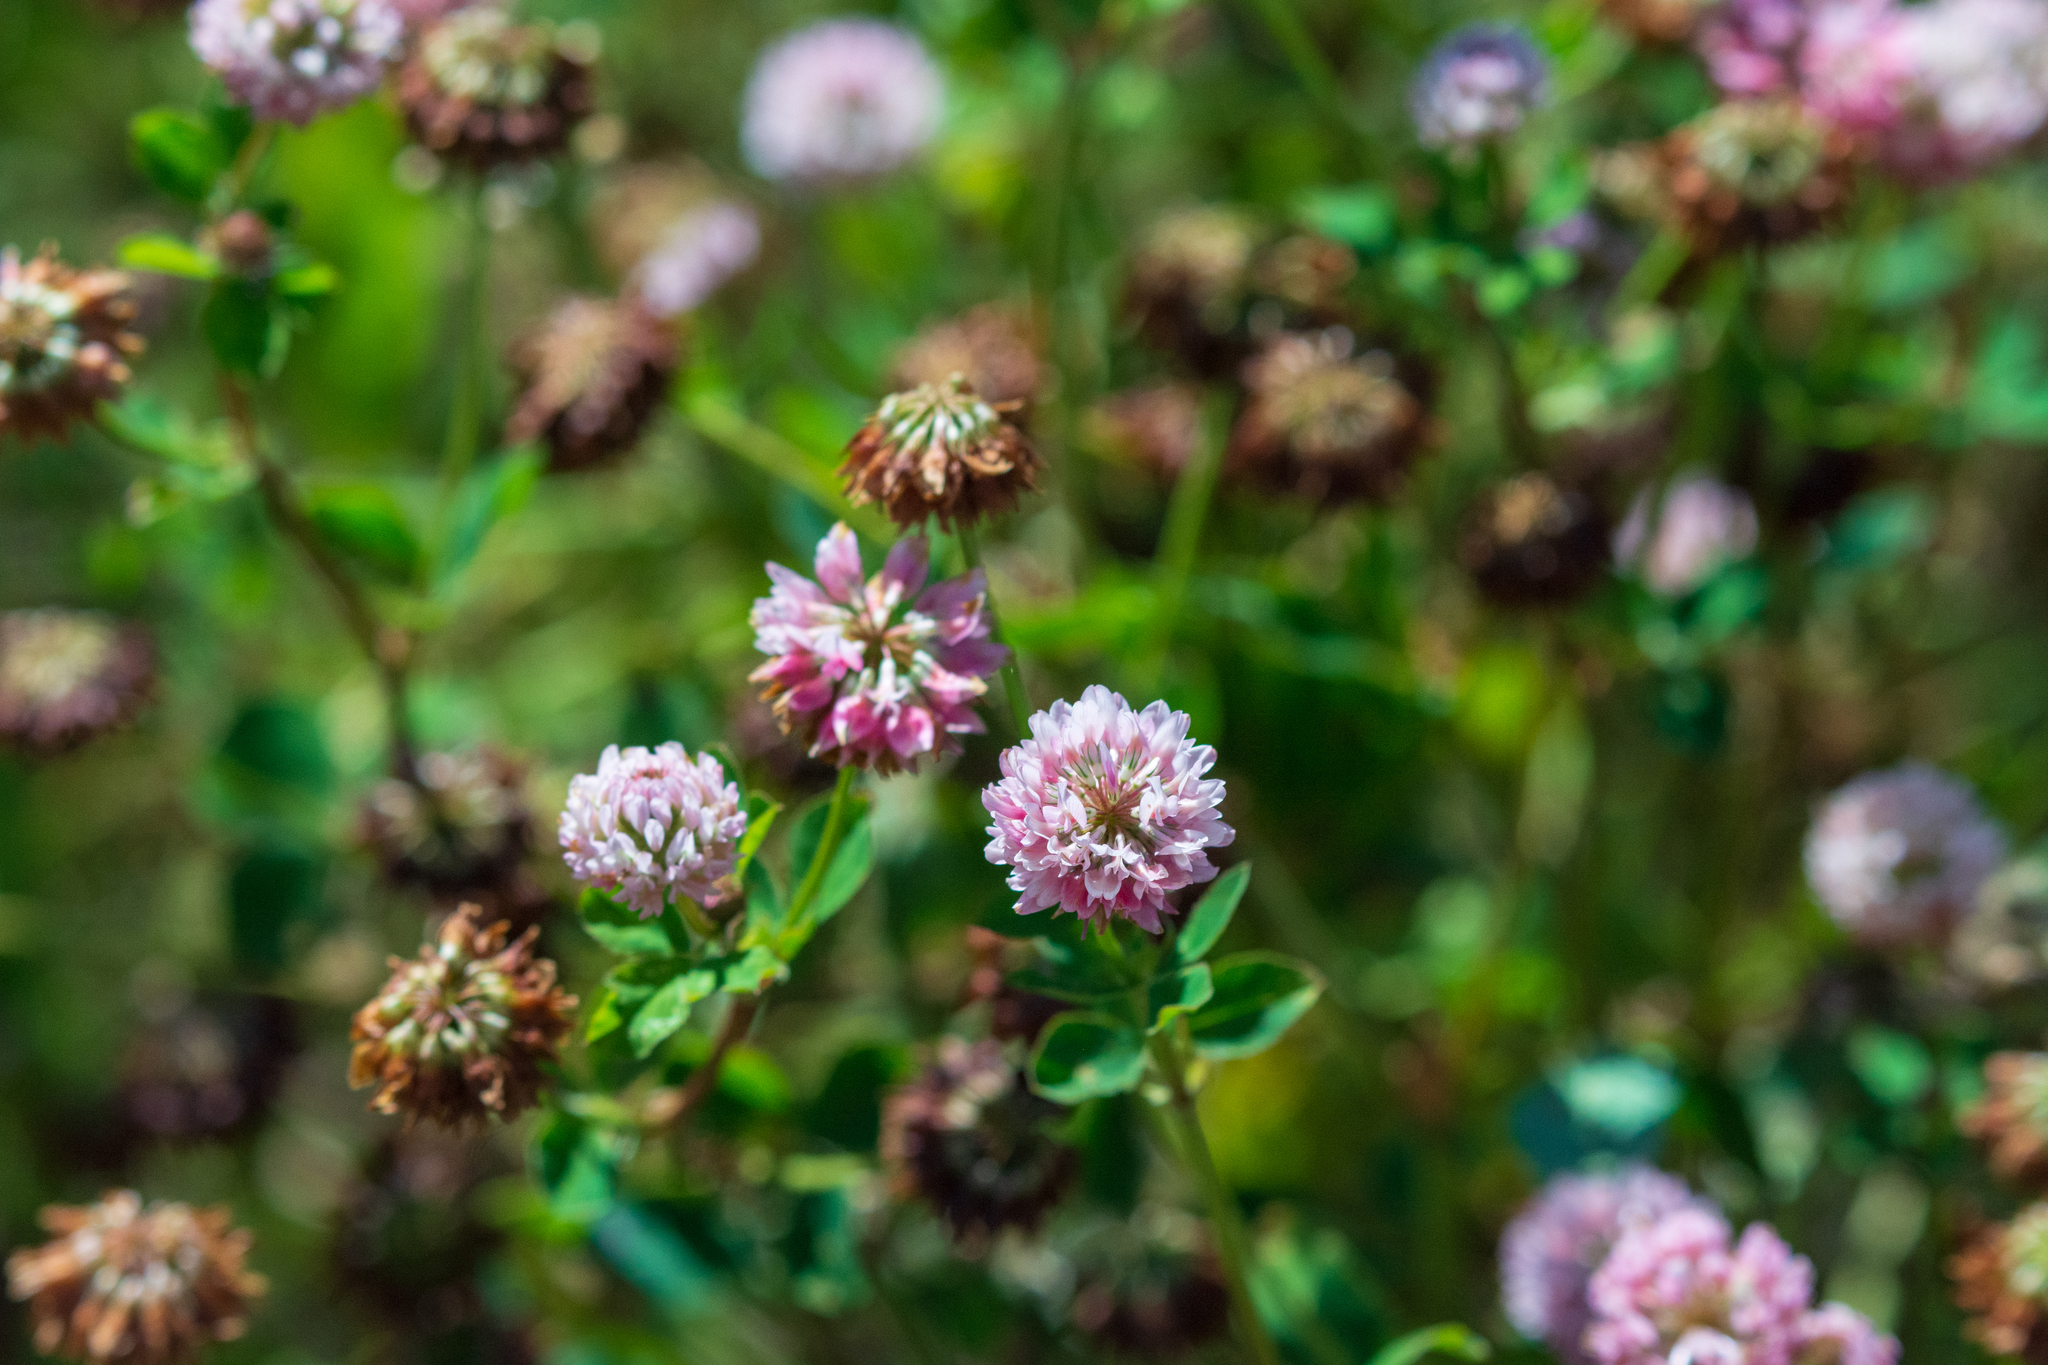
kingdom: Plantae
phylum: Tracheophyta
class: Magnoliopsida
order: Fabales
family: Fabaceae
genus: Trifolium
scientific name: Trifolium hybridum
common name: Alsike clover
